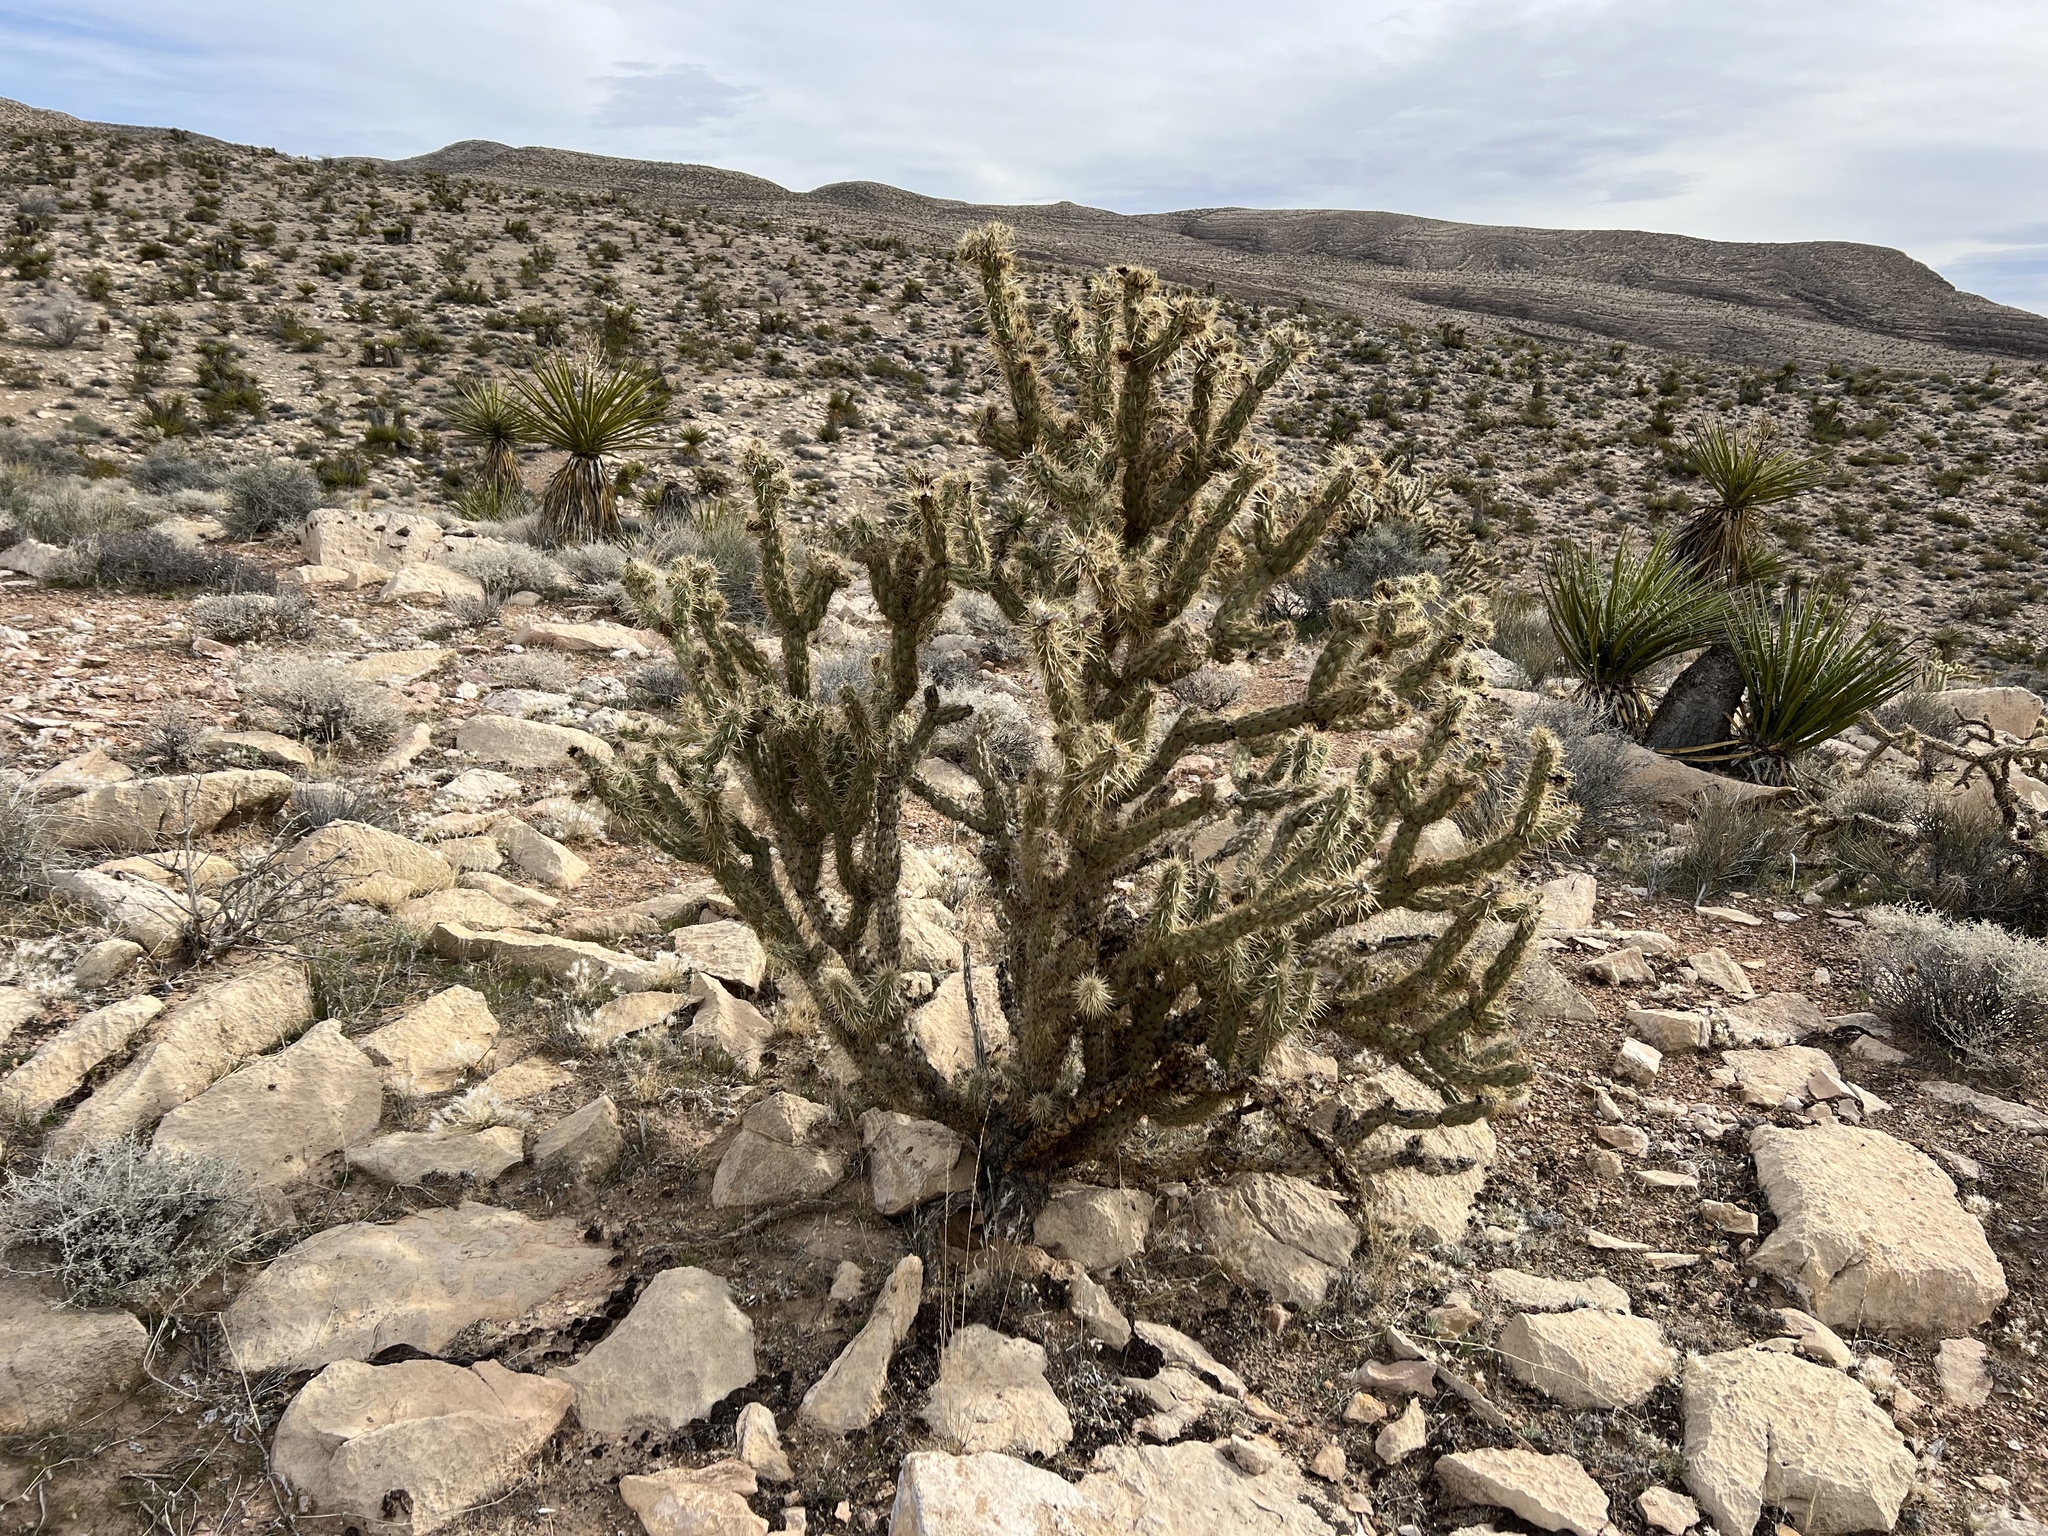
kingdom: Plantae
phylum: Tracheophyta
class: Magnoliopsida
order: Caryophyllales
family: Cactaceae
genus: Cylindropuntia
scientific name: Cylindropuntia acanthocarpa
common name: Buckhorn cholla
